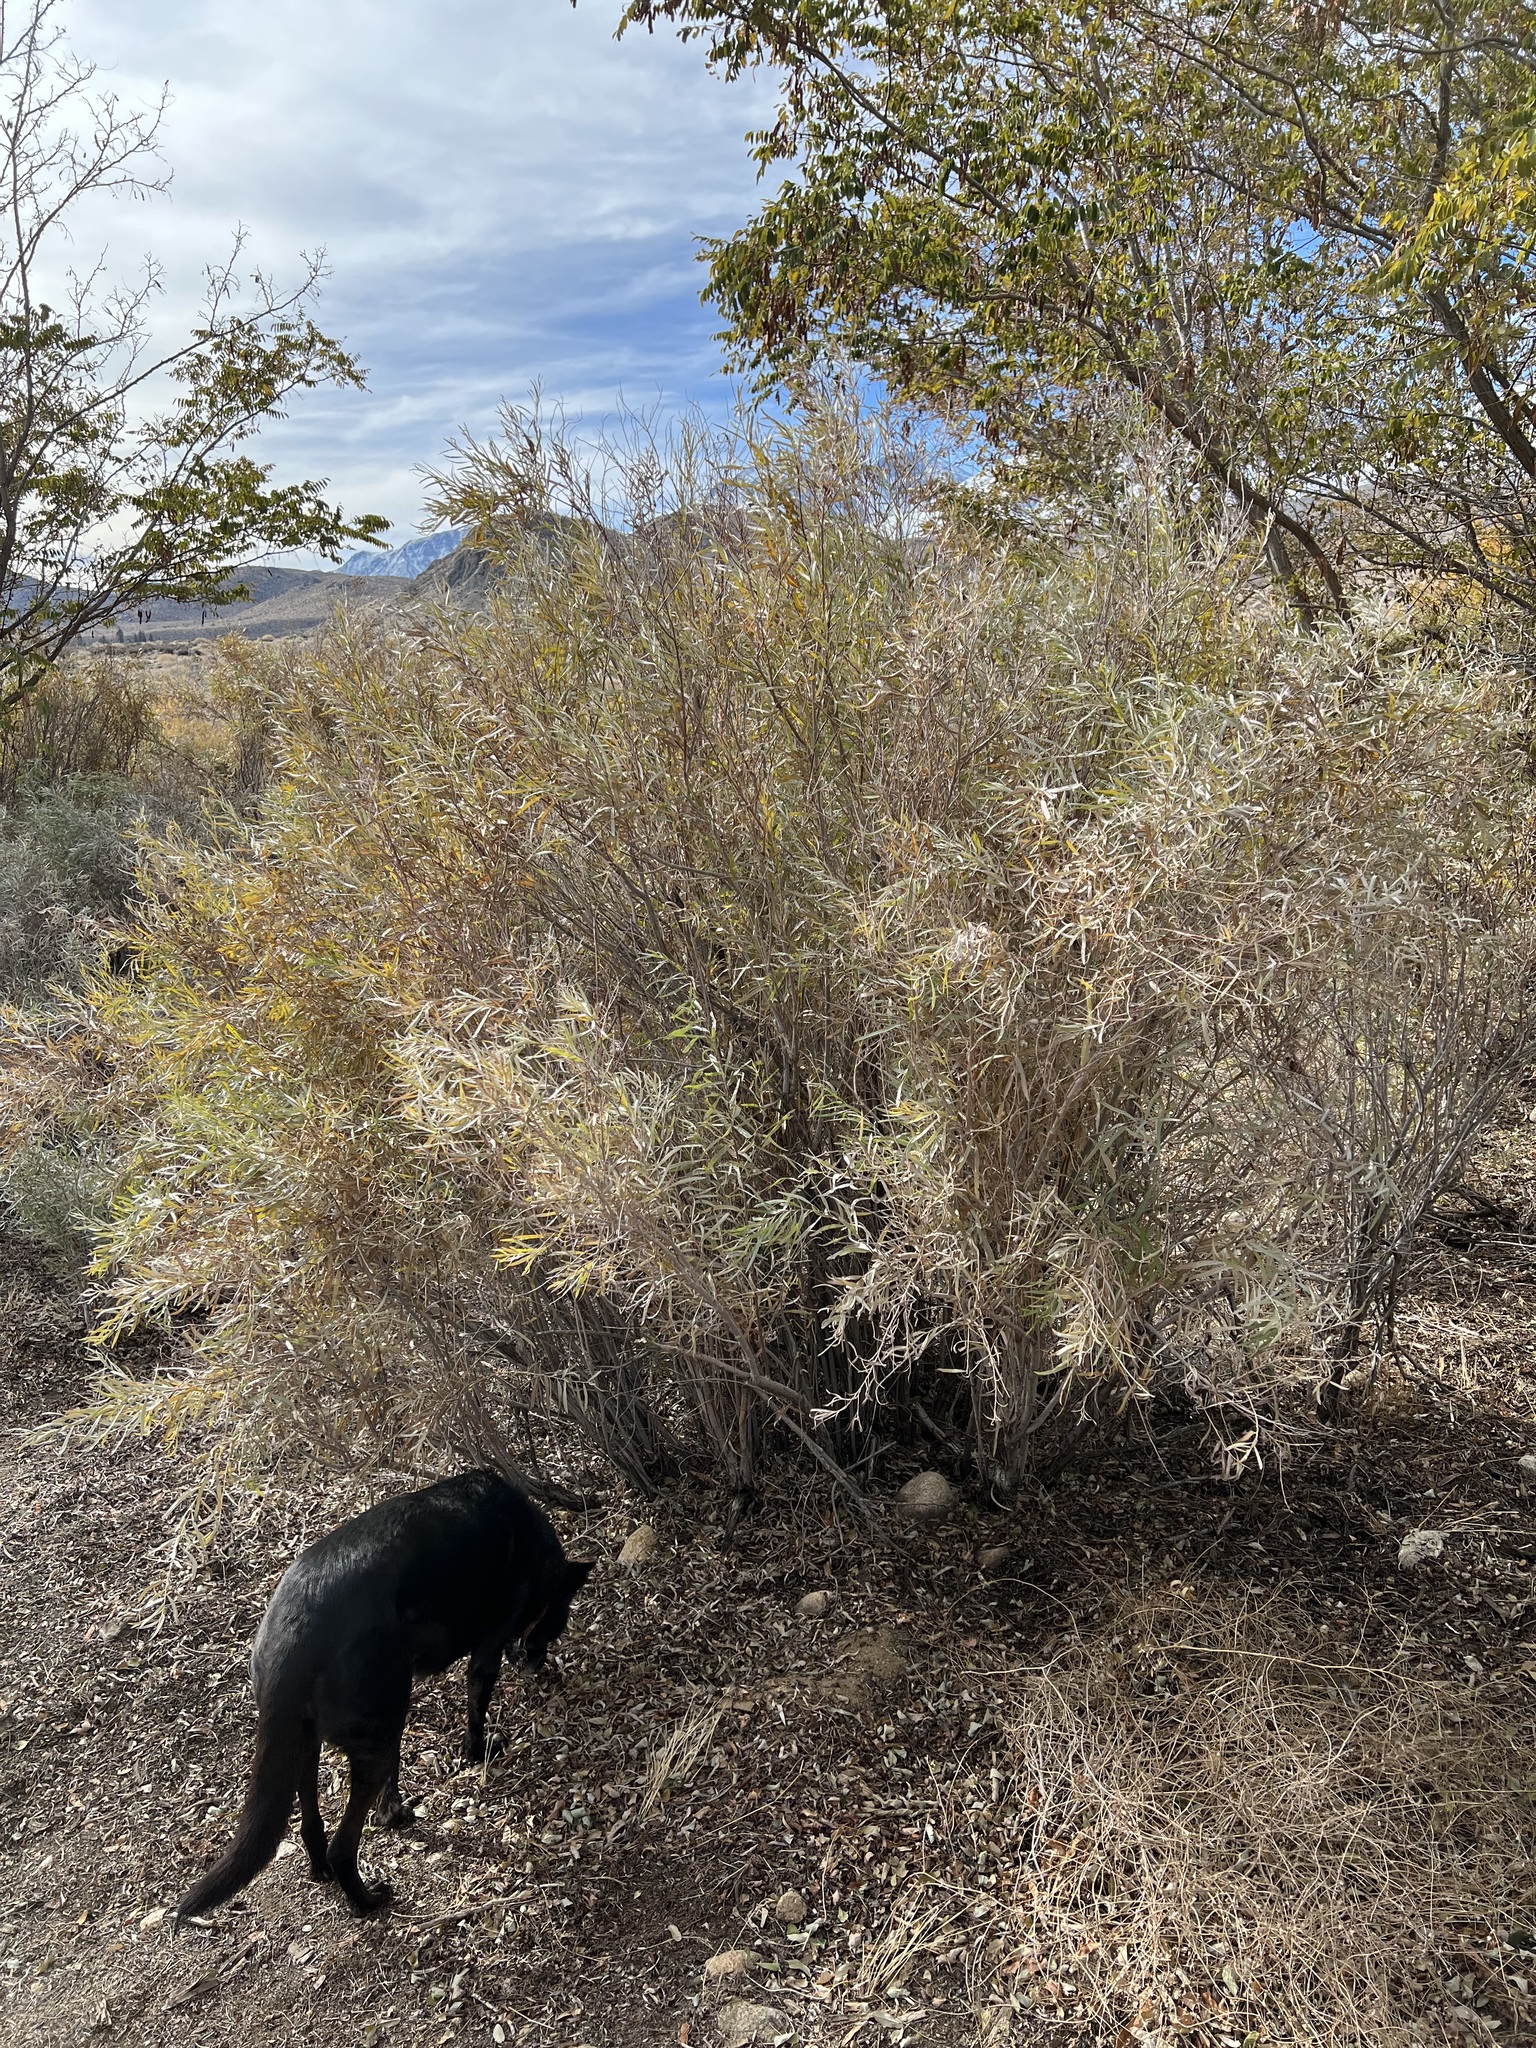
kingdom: Plantae
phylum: Tracheophyta
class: Magnoliopsida
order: Malpighiales
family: Salicaceae
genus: Salix
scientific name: Salix exigua
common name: Coyote willow
